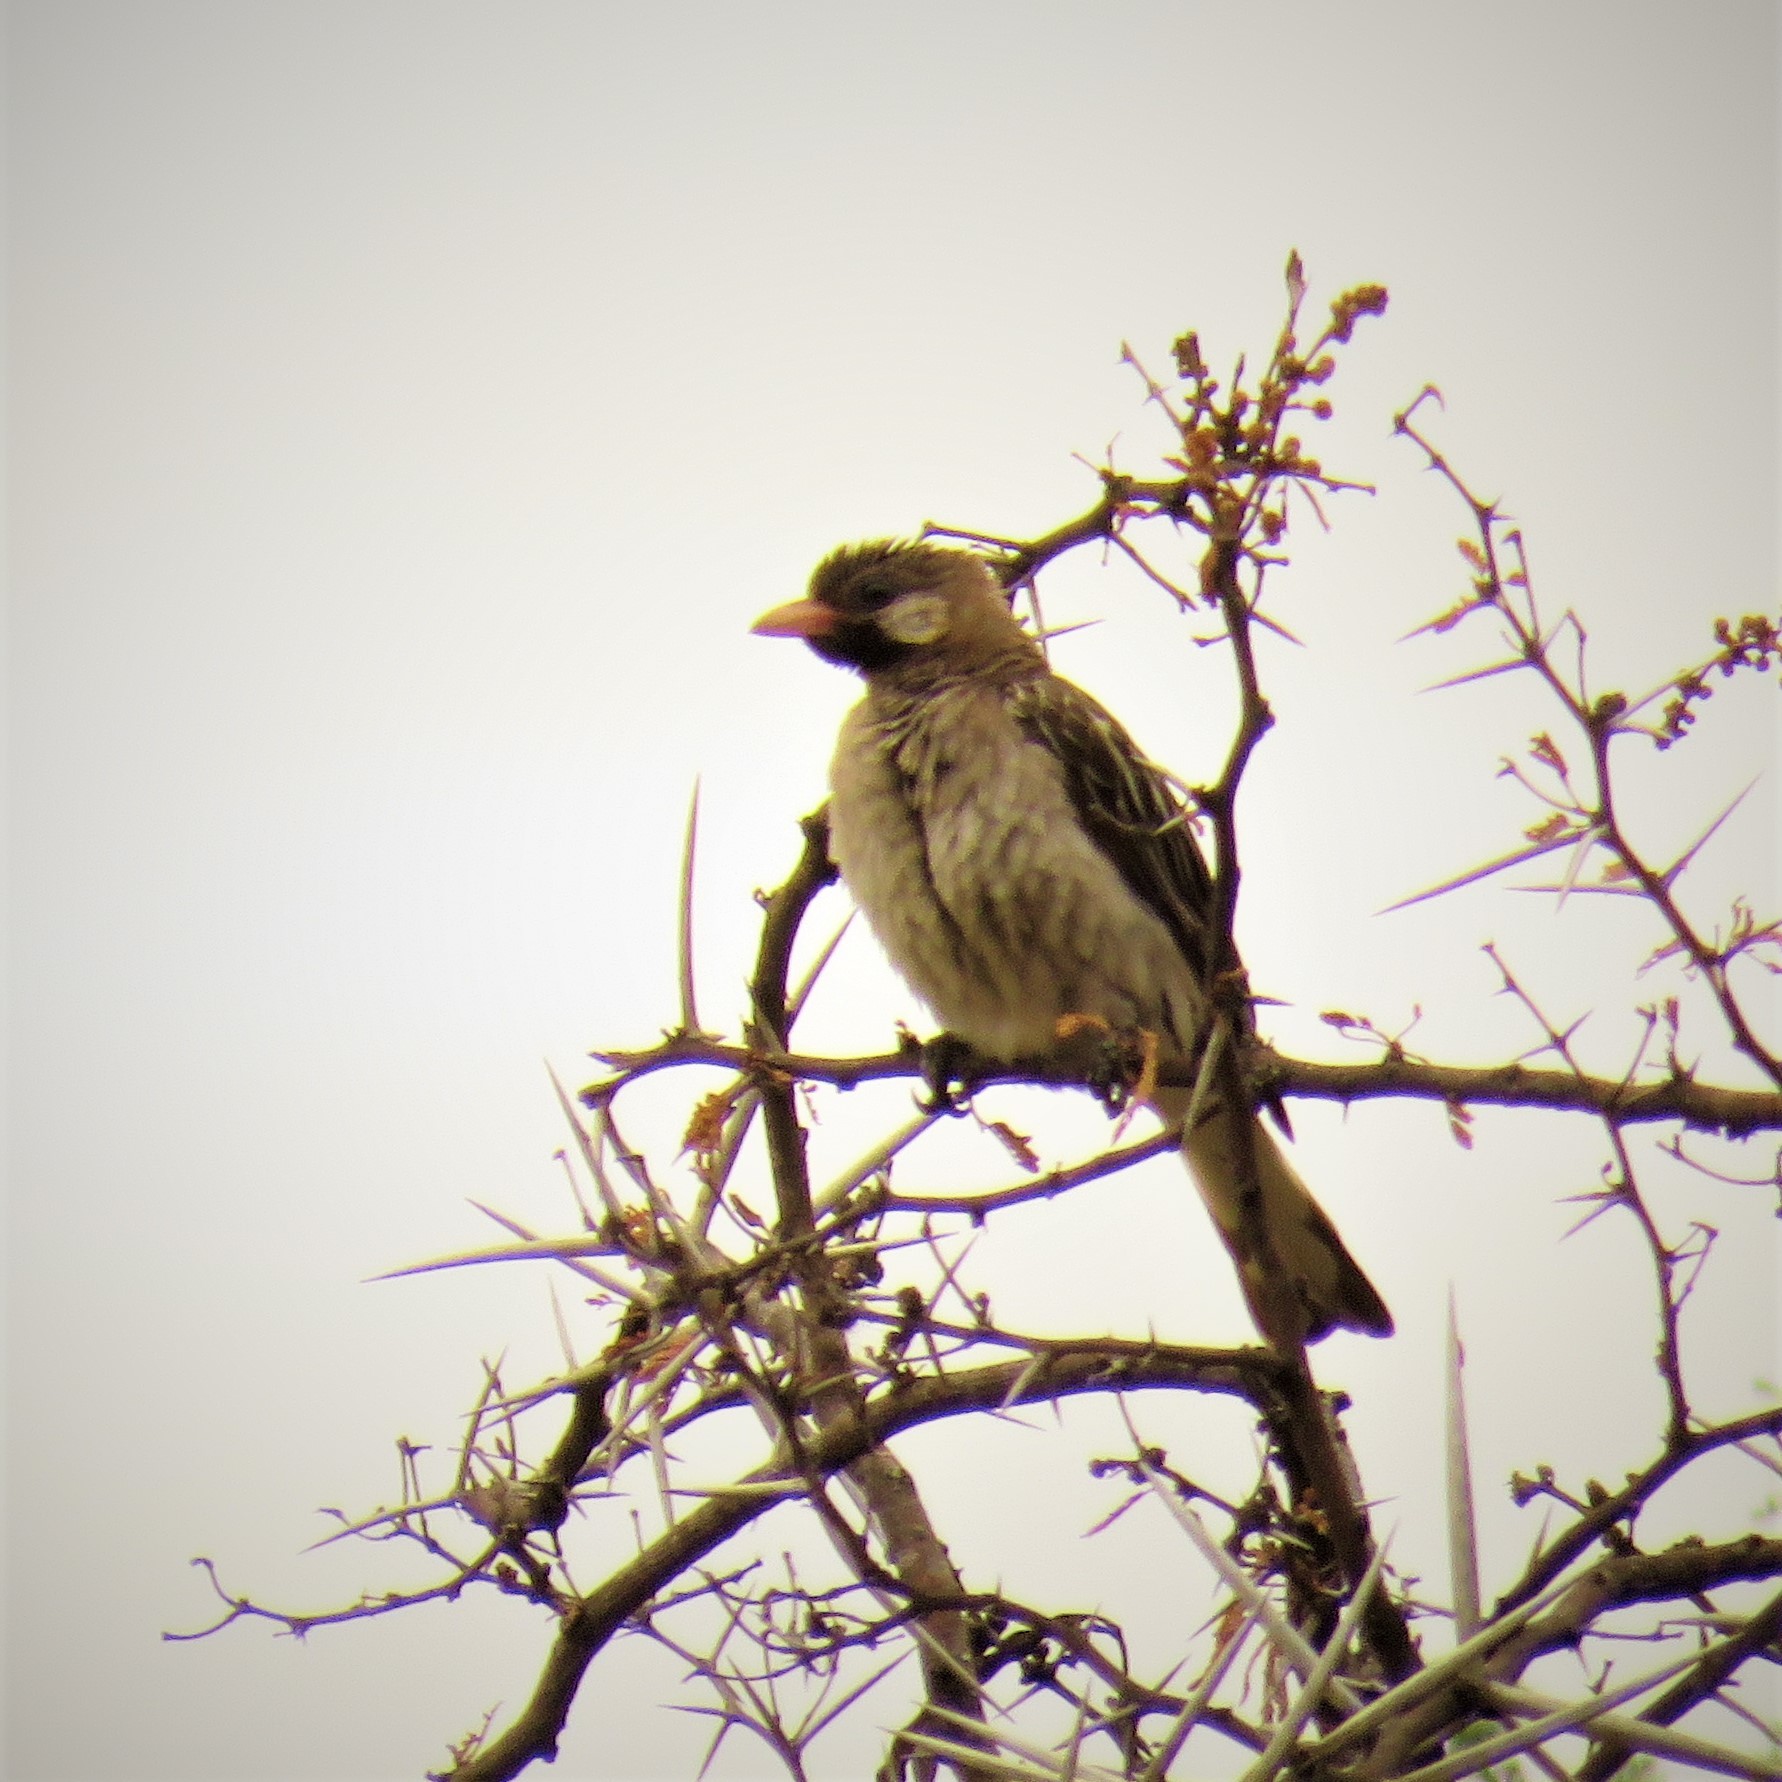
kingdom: Animalia
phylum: Chordata
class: Aves
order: Piciformes
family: Indicatoridae
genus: Indicator
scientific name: Indicator indicator
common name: Greater honeyguide
